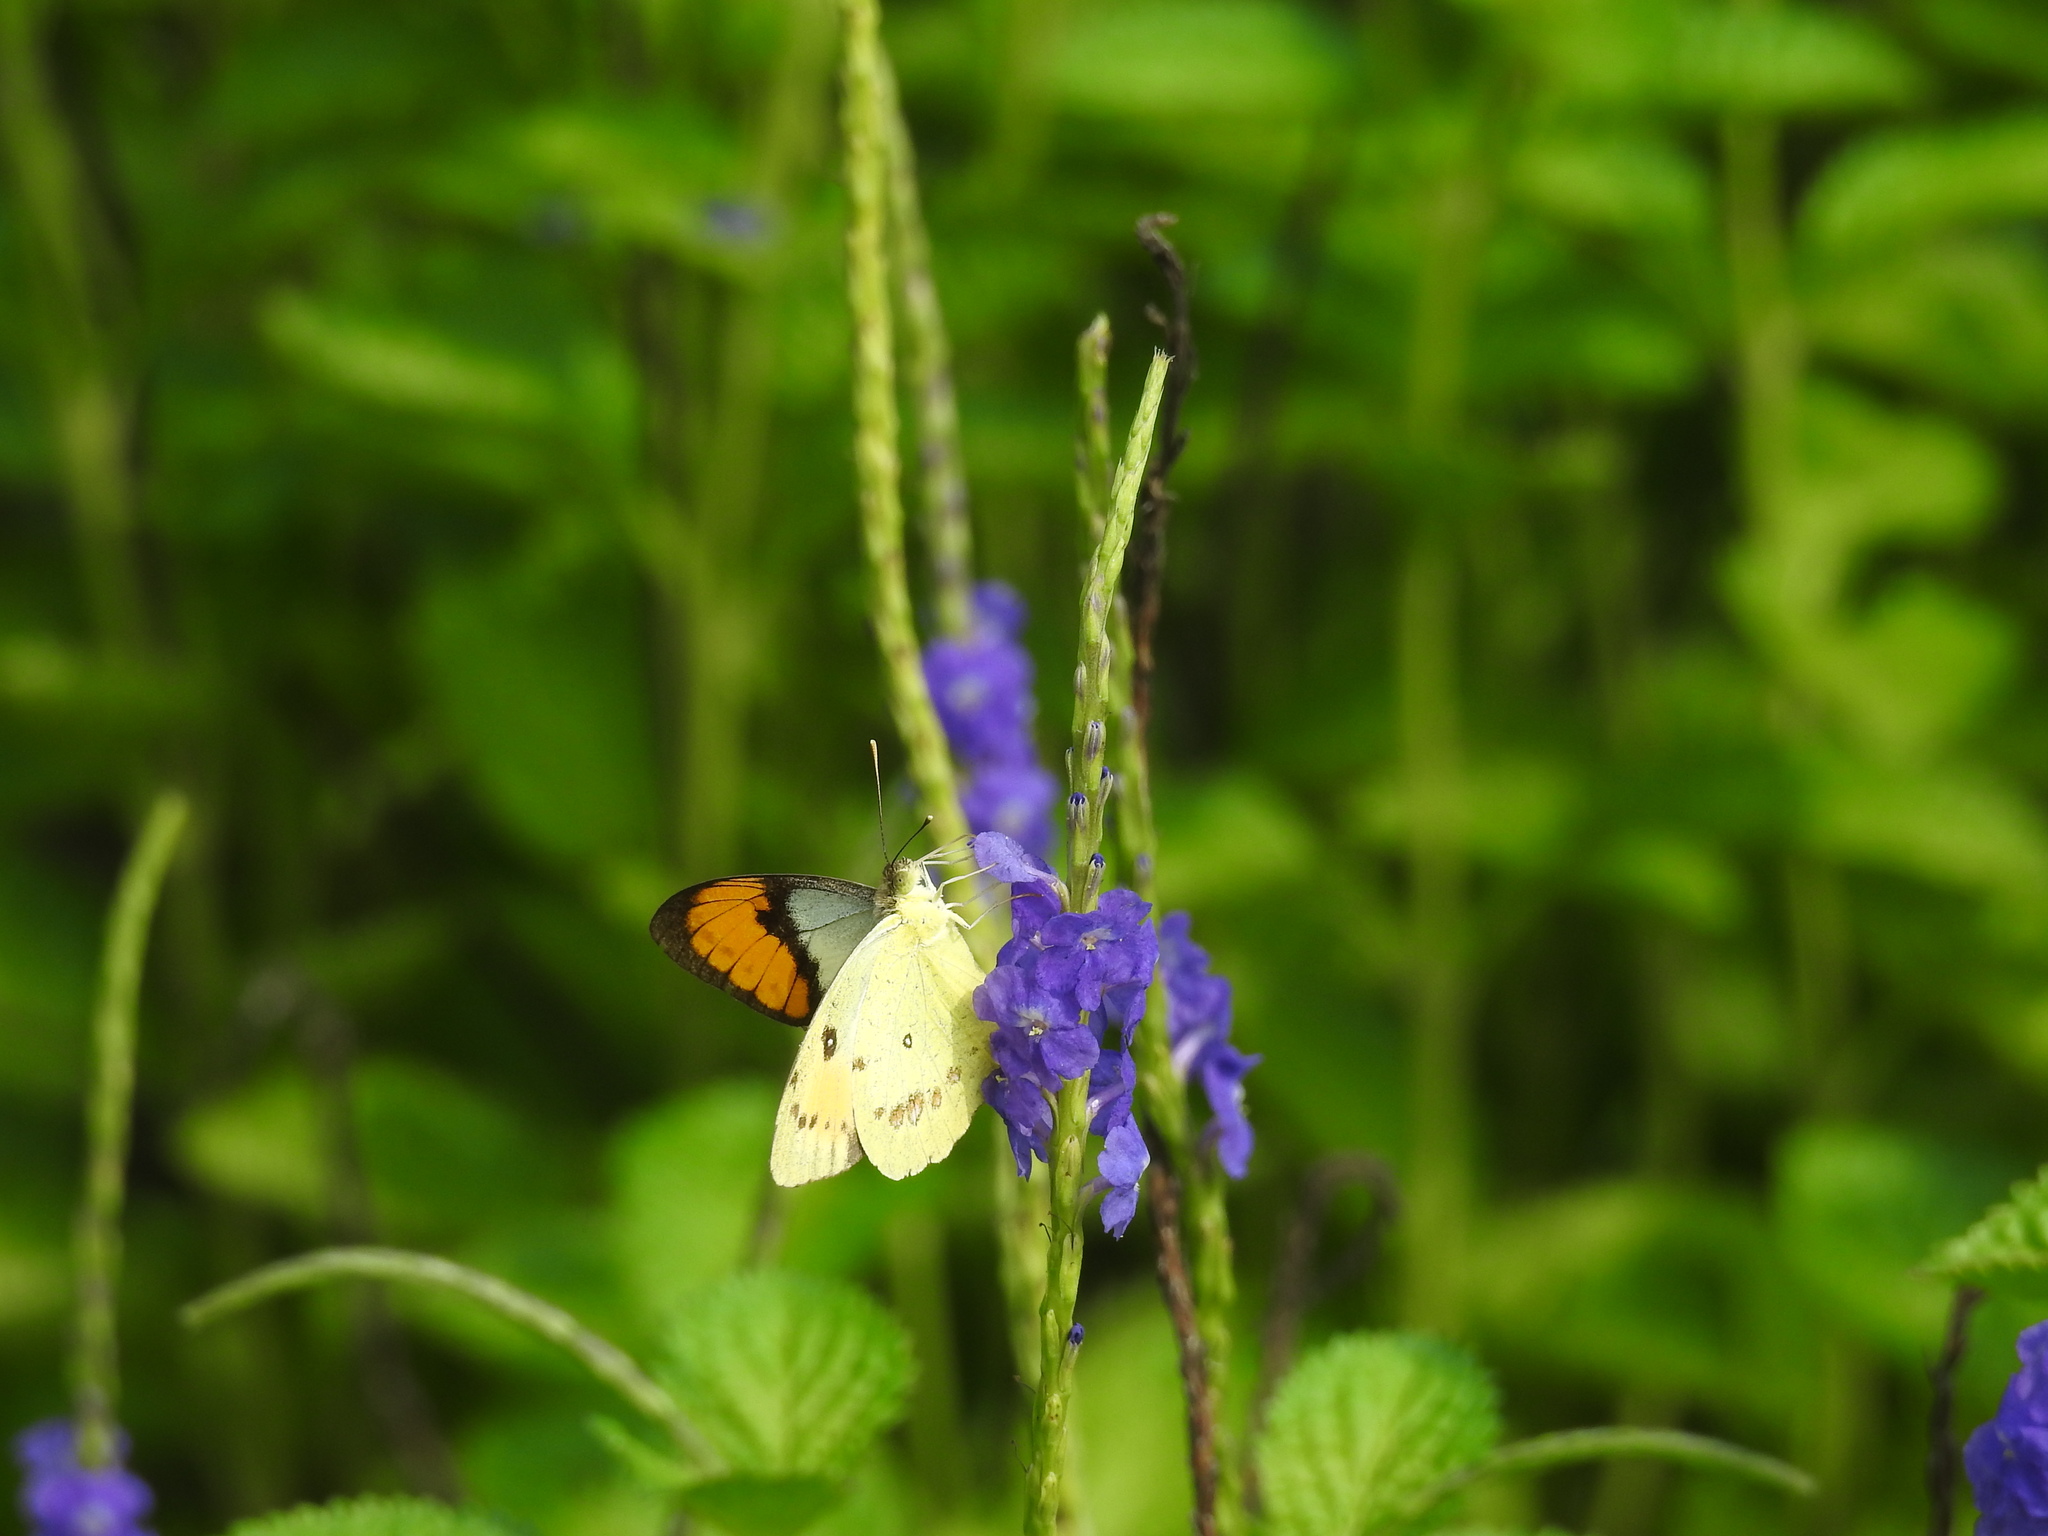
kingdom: Animalia
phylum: Arthropoda
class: Insecta
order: Lepidoptera
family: Pieridae
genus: Ixias
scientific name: Ixias marianne
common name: White orange tip
